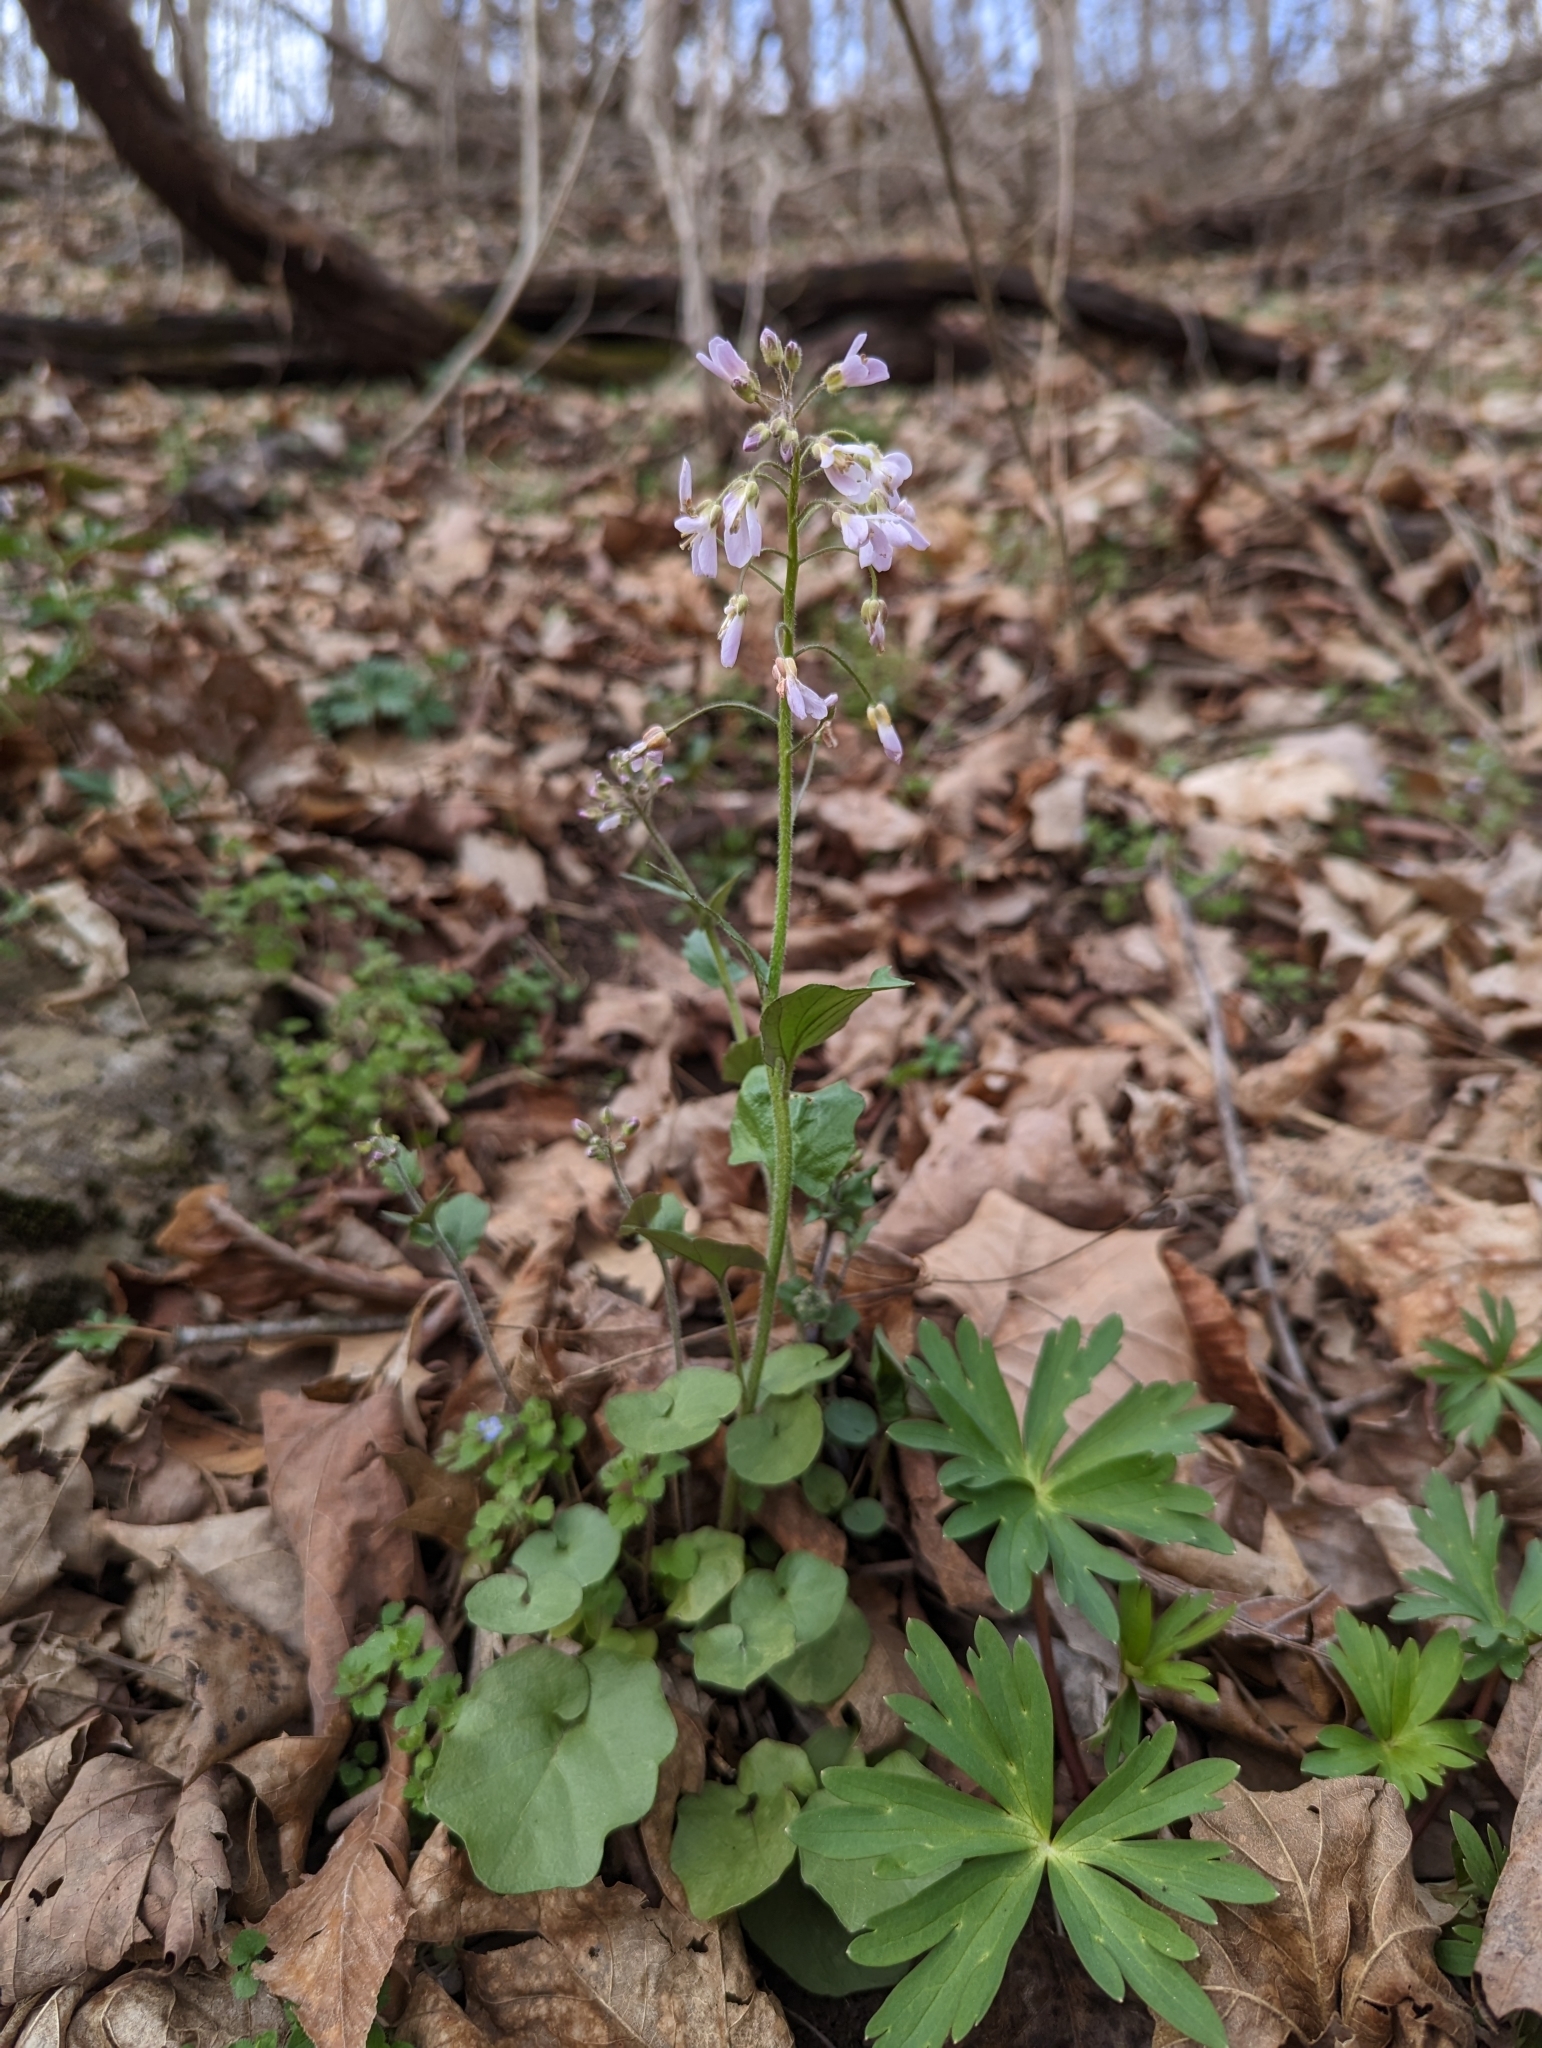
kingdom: Plantae
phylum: Tracheophyta
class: Magnoliopsida
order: Brassicales
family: Brassicaceae
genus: Cardamine
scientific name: Cardamine douglassii
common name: Purple cress
